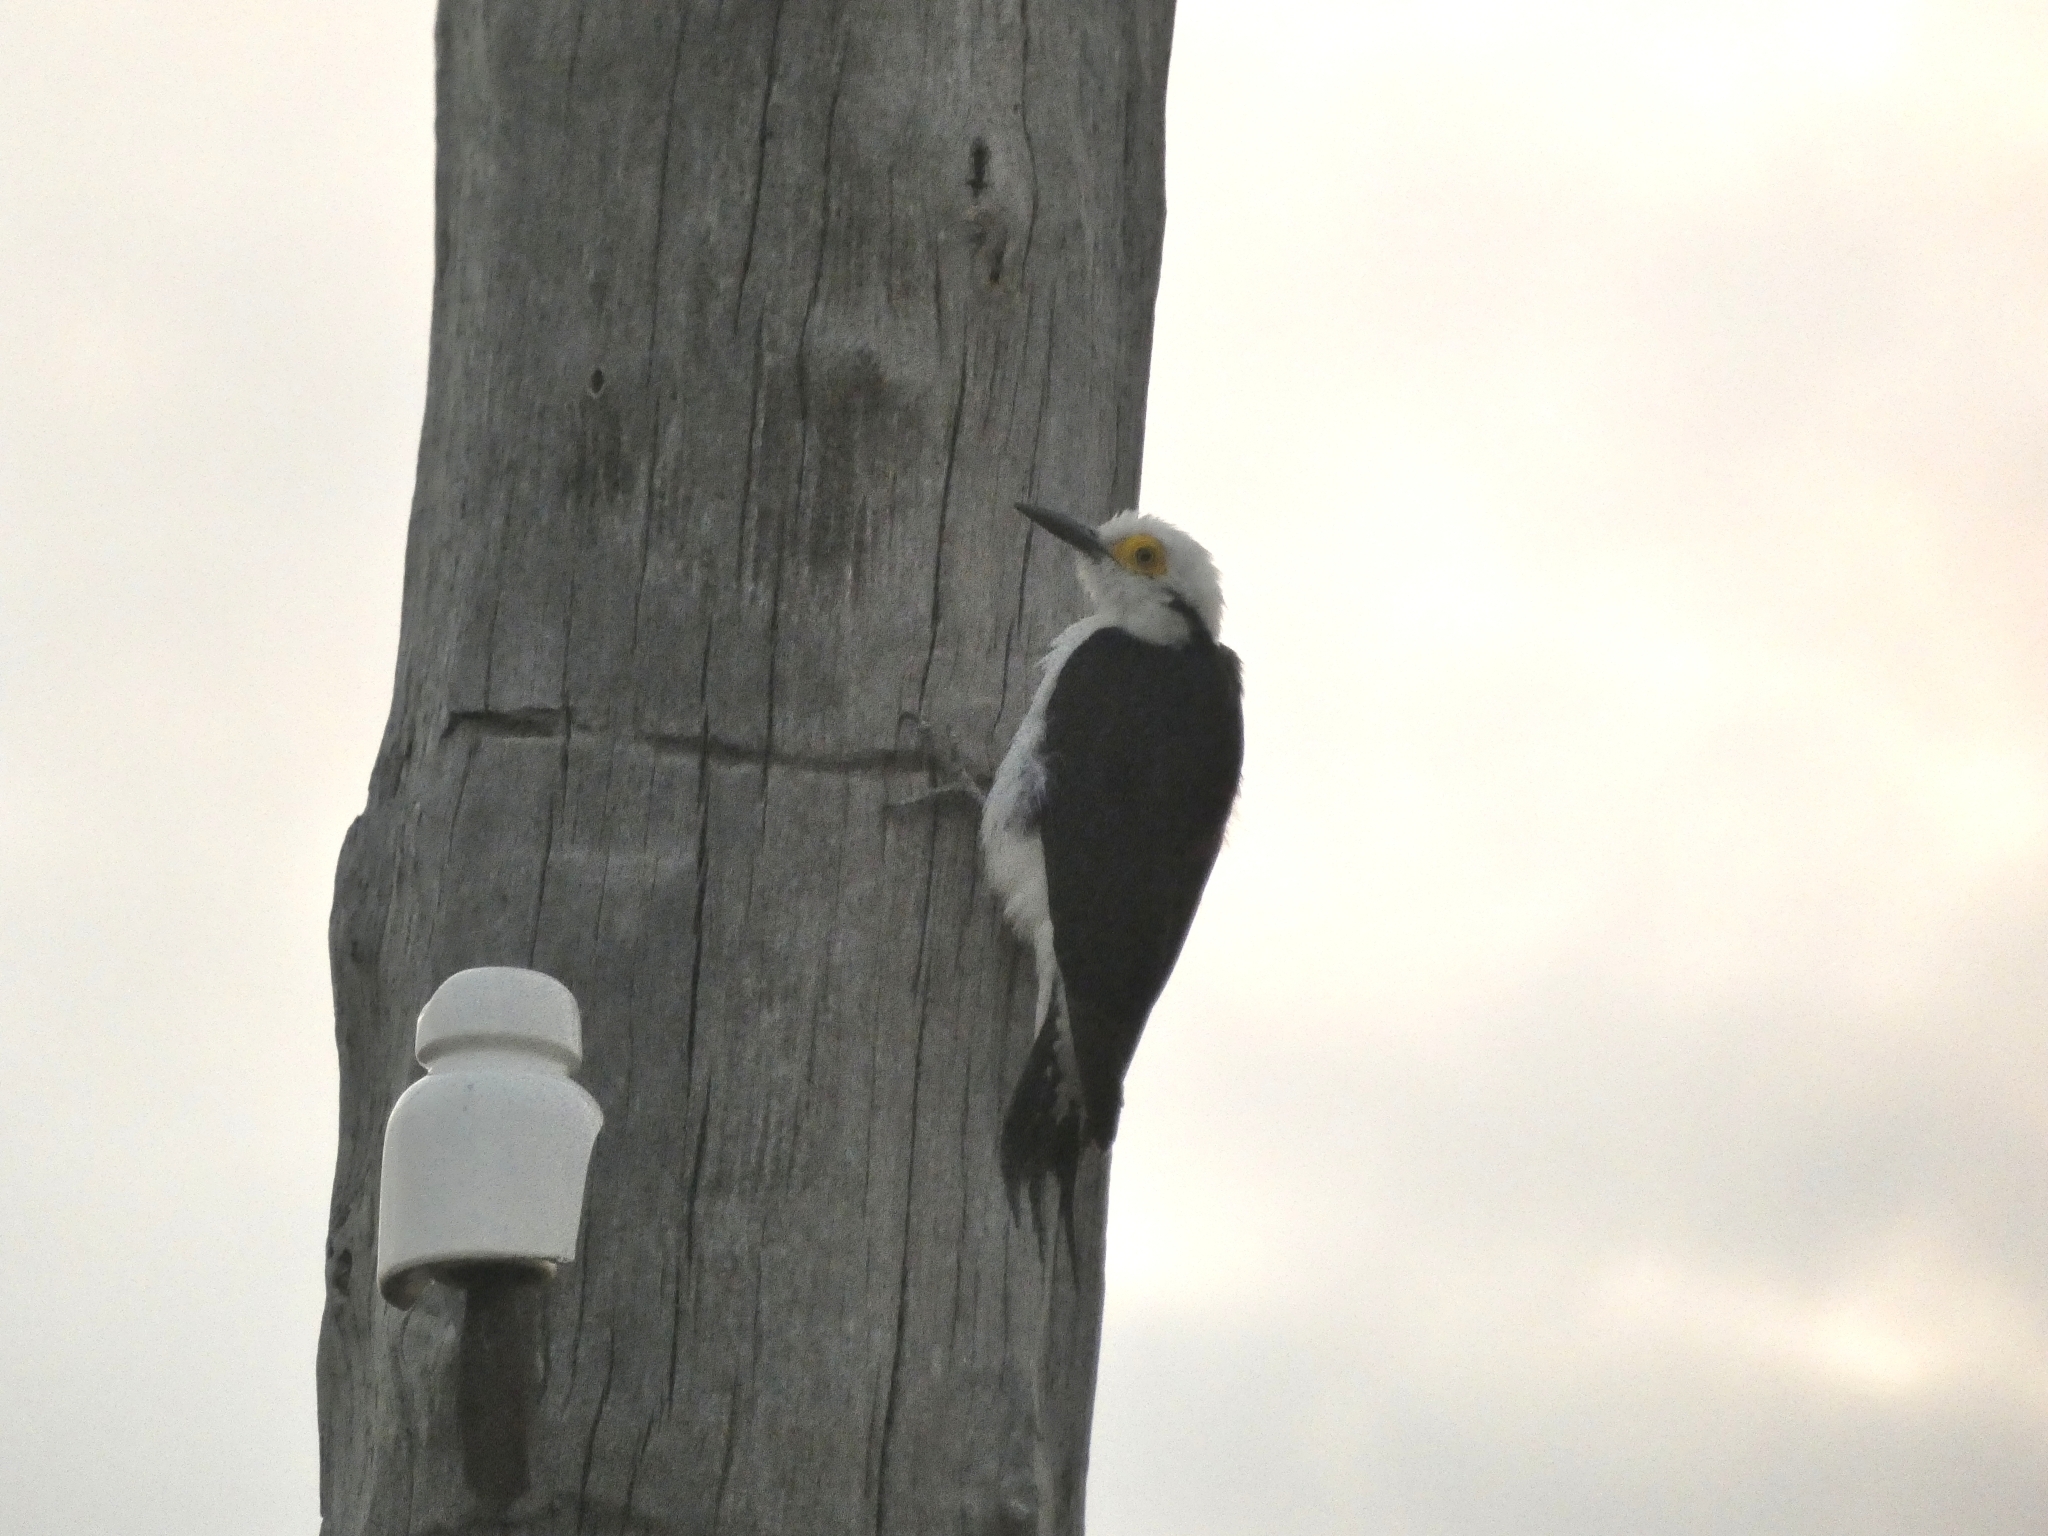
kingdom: Animalia
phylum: Chordata
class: Aves
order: Piciformes
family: Picidae
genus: Melanerpes
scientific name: Melanerpes candidus
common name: White woodpecker
